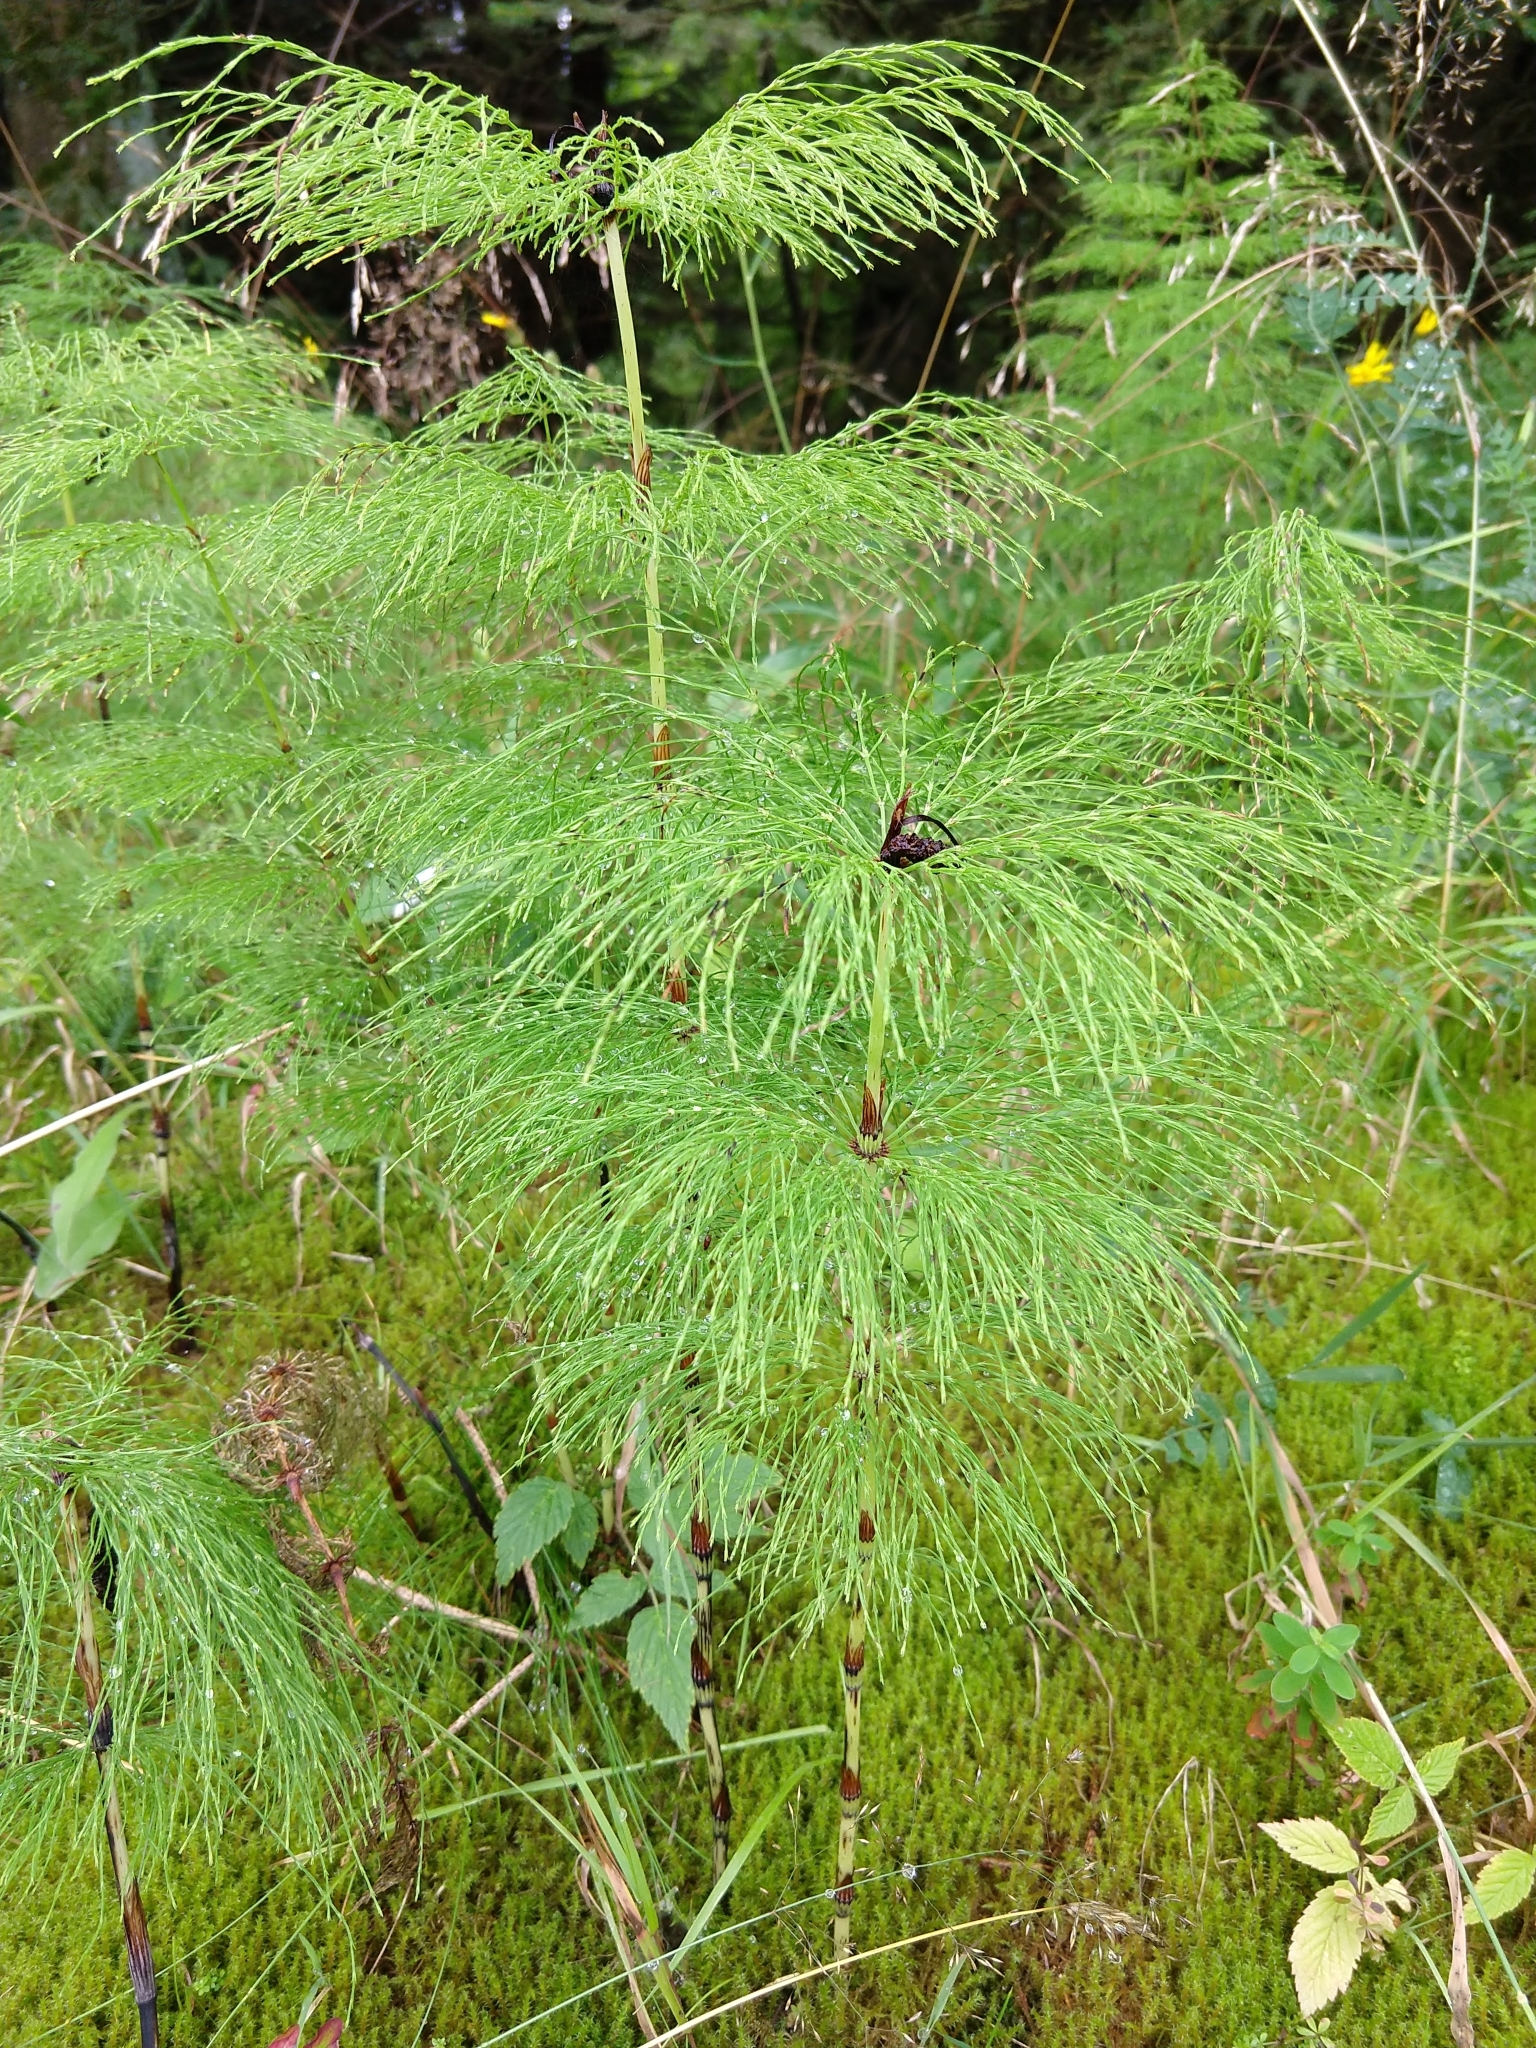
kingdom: Plantae
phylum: Tracheophyta
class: Polypodiopsida
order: Equisetales
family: Equisetaceae
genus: Equisetum
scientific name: Equisetum sylvaticum
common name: Wood horsetail
